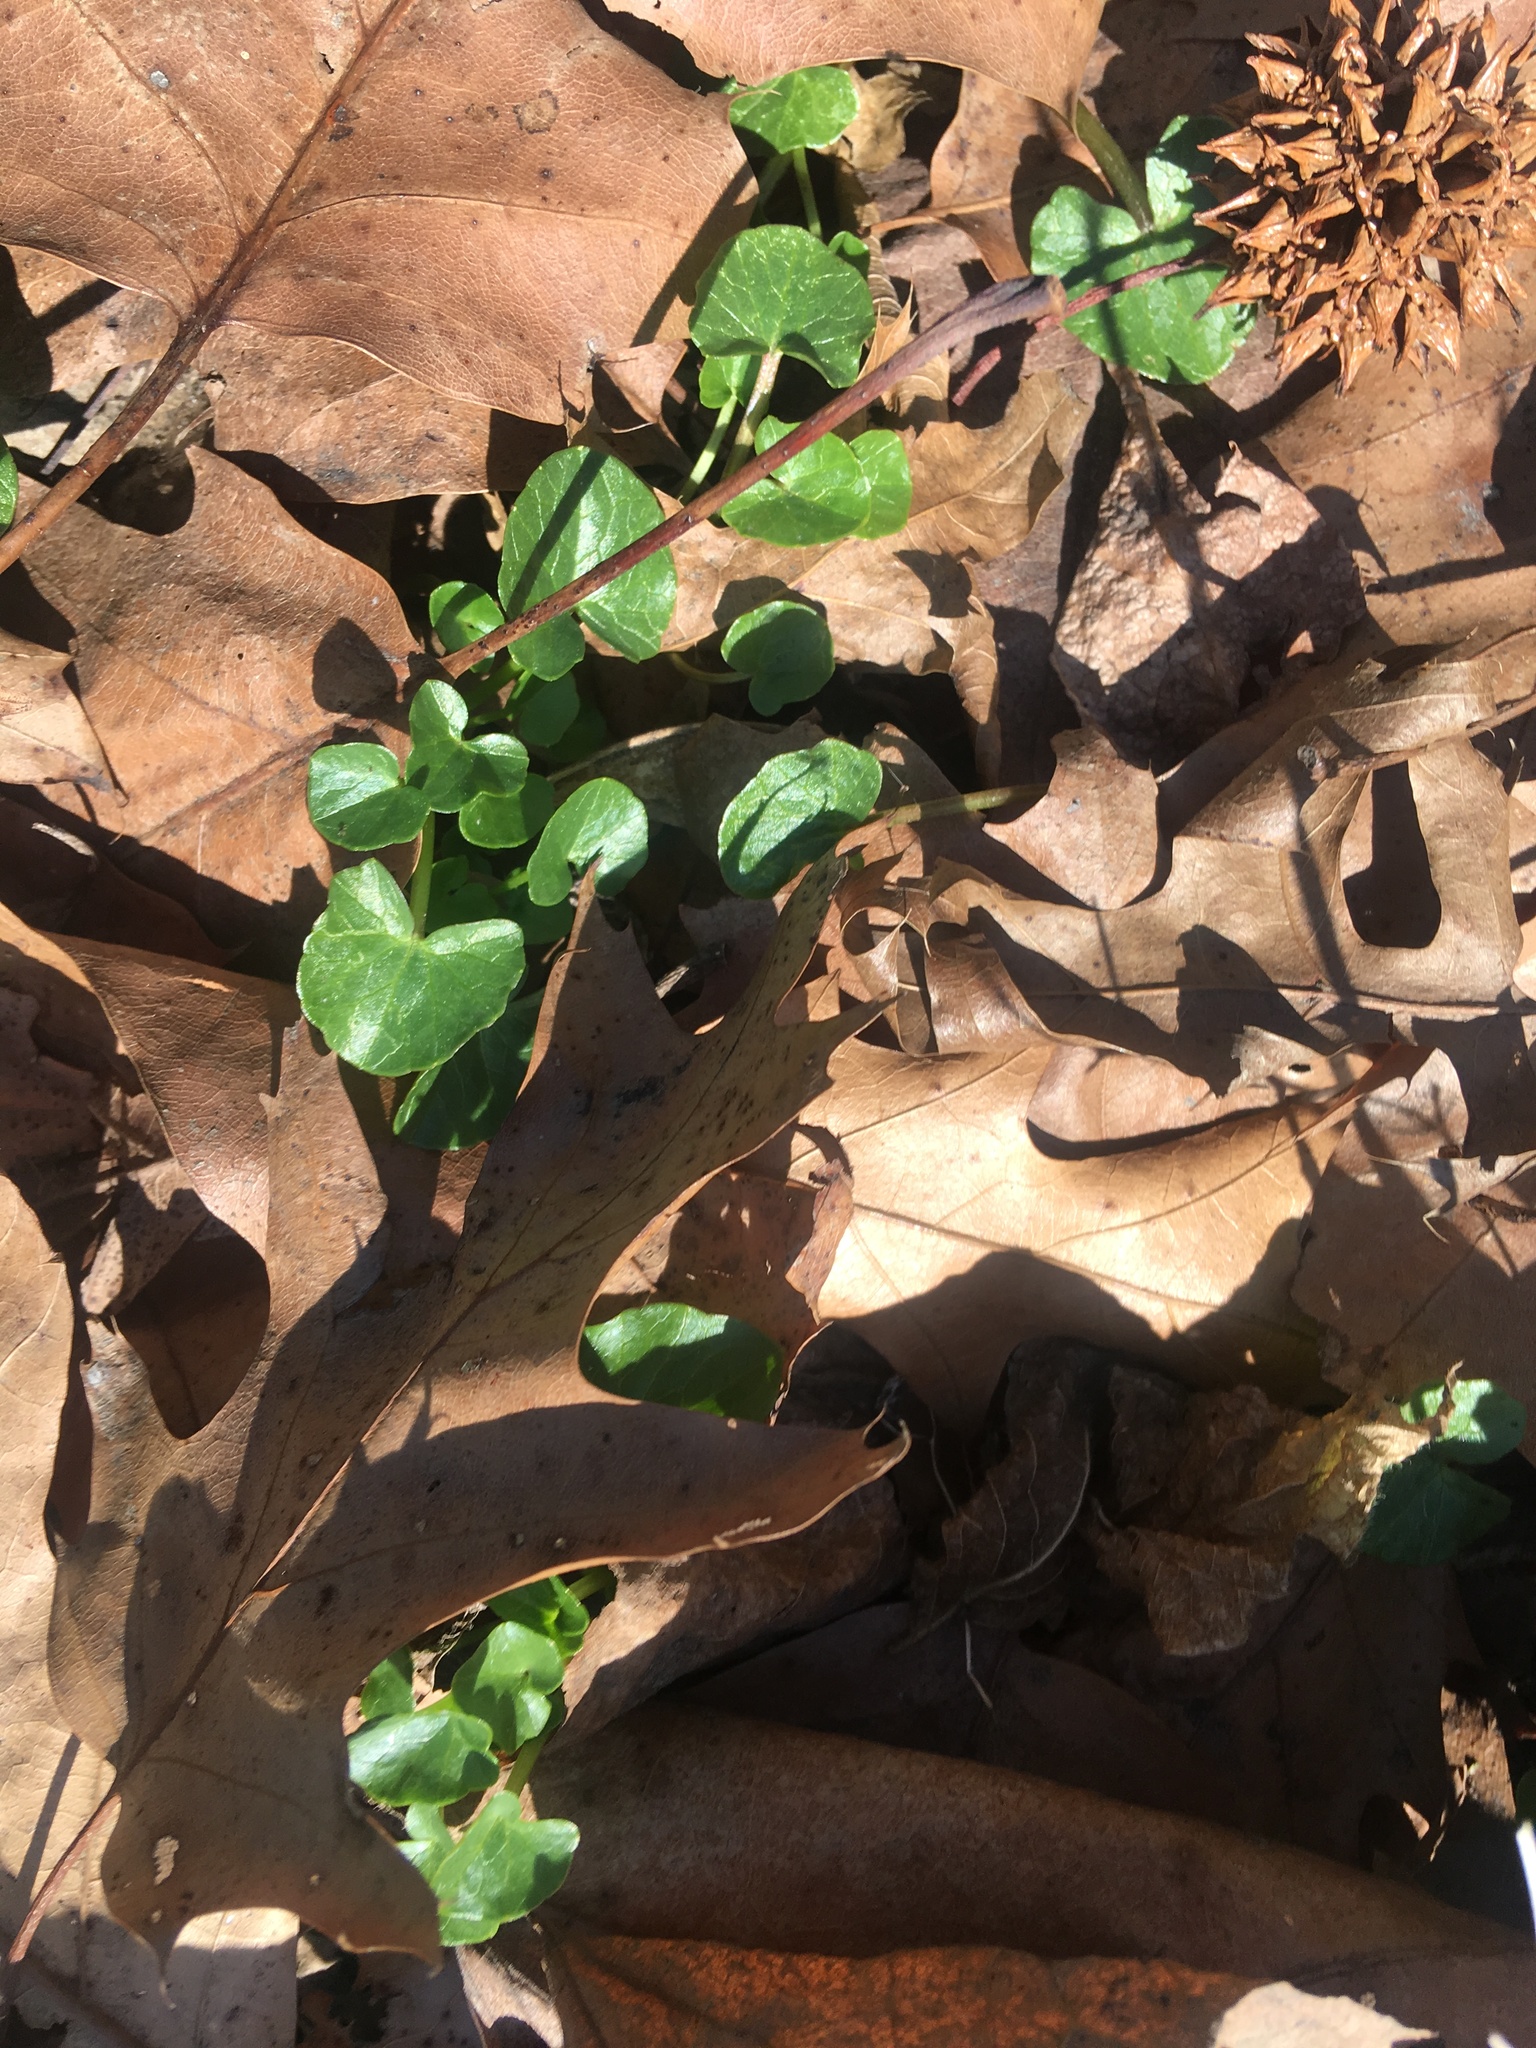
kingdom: Plantae
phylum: Tracheophyta
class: Magnoliopsida
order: Ranunculales
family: Ranunculaceae
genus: Ficaria
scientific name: Ficaria verna
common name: Lesser celandine
